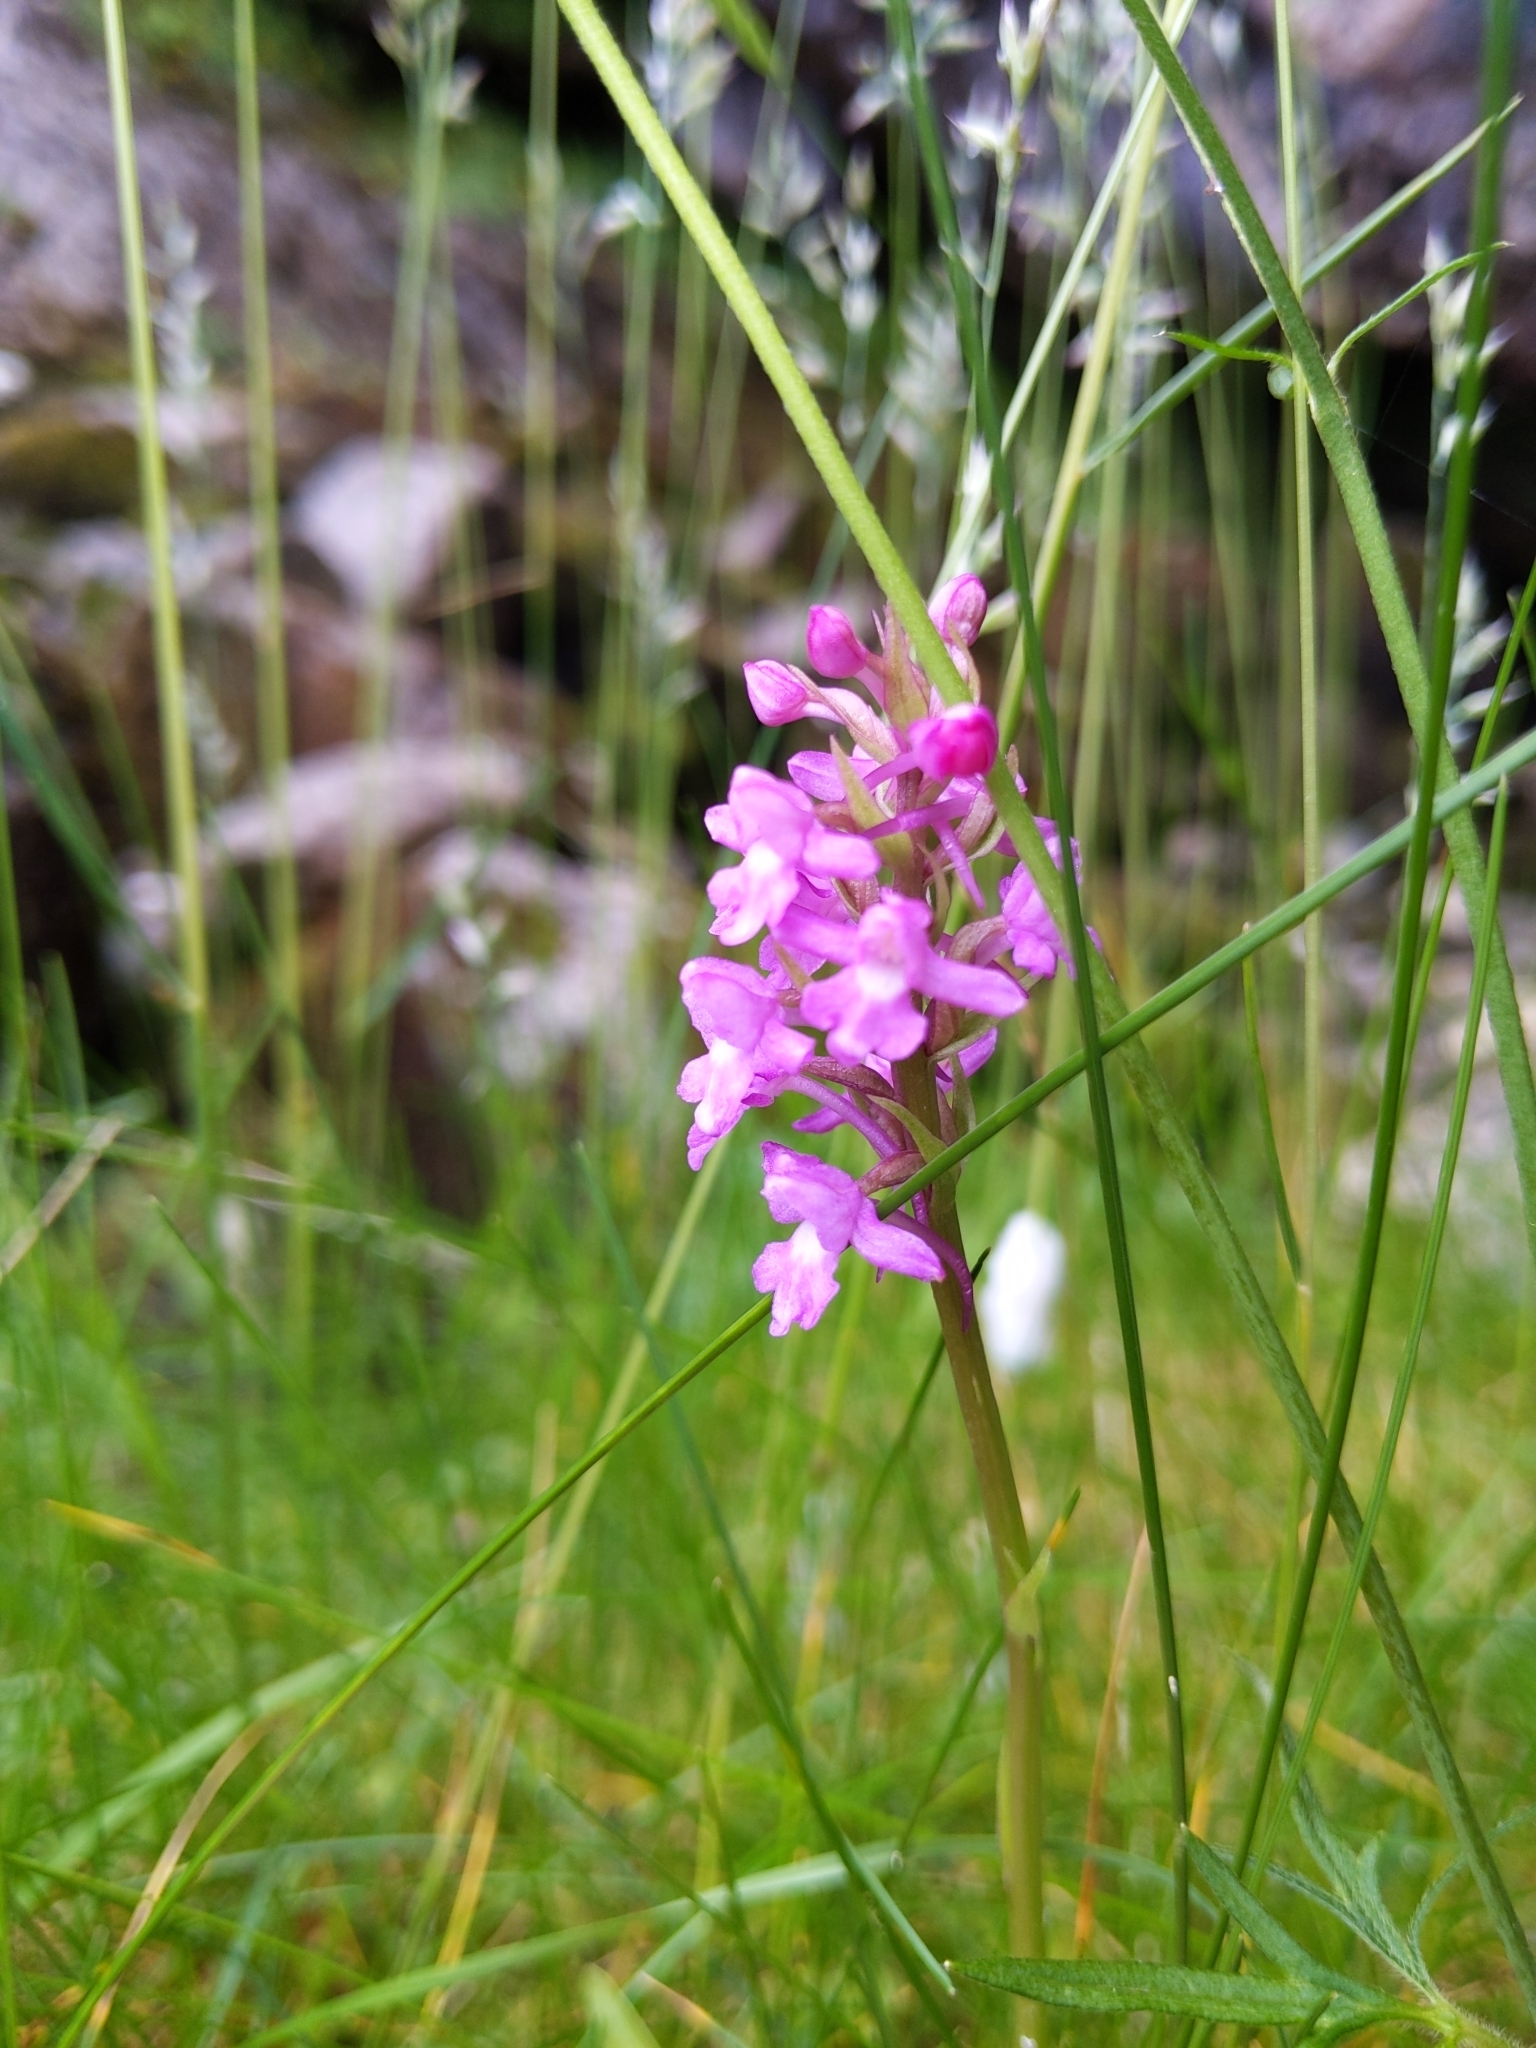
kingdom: Plantae
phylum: Tracheophyta
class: Liliopsida
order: Asparagales
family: Orchidaceae
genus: Gymnadenia
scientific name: Gymnadenia borealis
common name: Heath fragrant orchid
